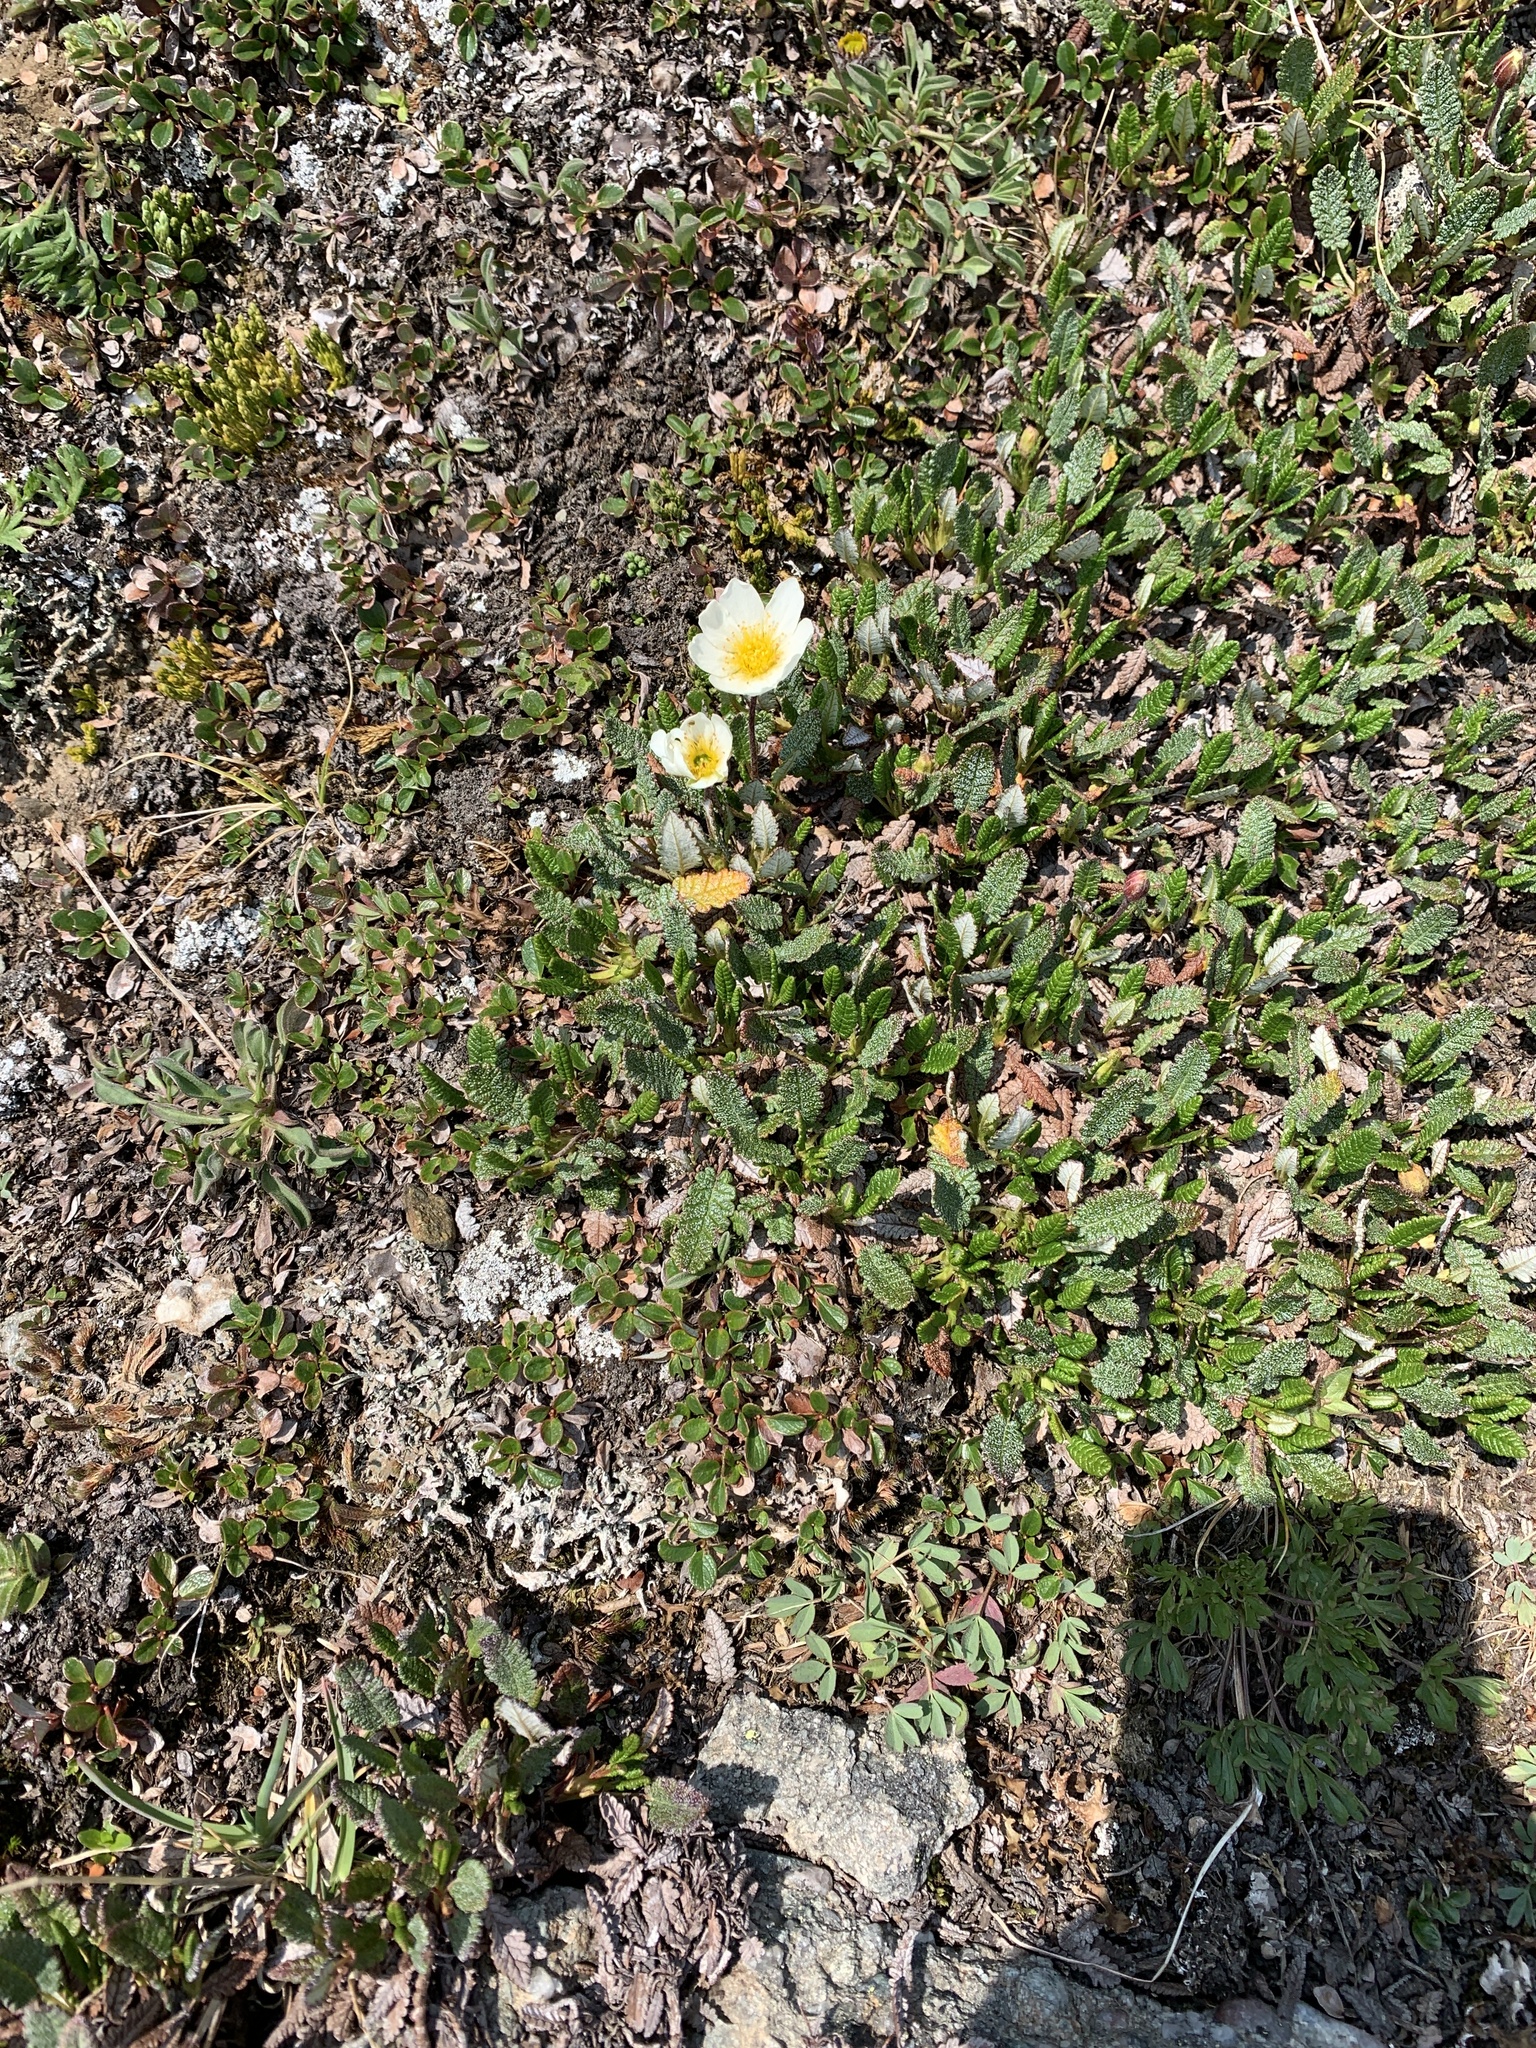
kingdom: Plantae
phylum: Tracheophyta
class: Magnoliopsida
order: Rosales
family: Rosaceae
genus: Dryas
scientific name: Dryas octopetala
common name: Eight-petal mountain-avens
